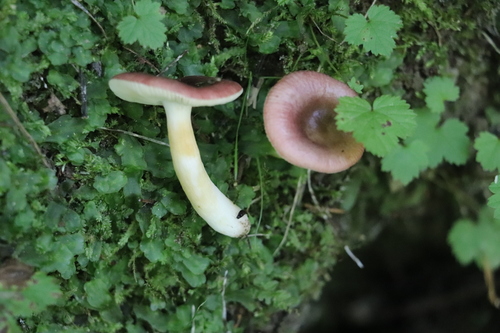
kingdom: Fungi
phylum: Basidiomycota
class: Agaricomycetes
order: Russulales
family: Russulaceae
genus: Russula
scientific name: Russula
